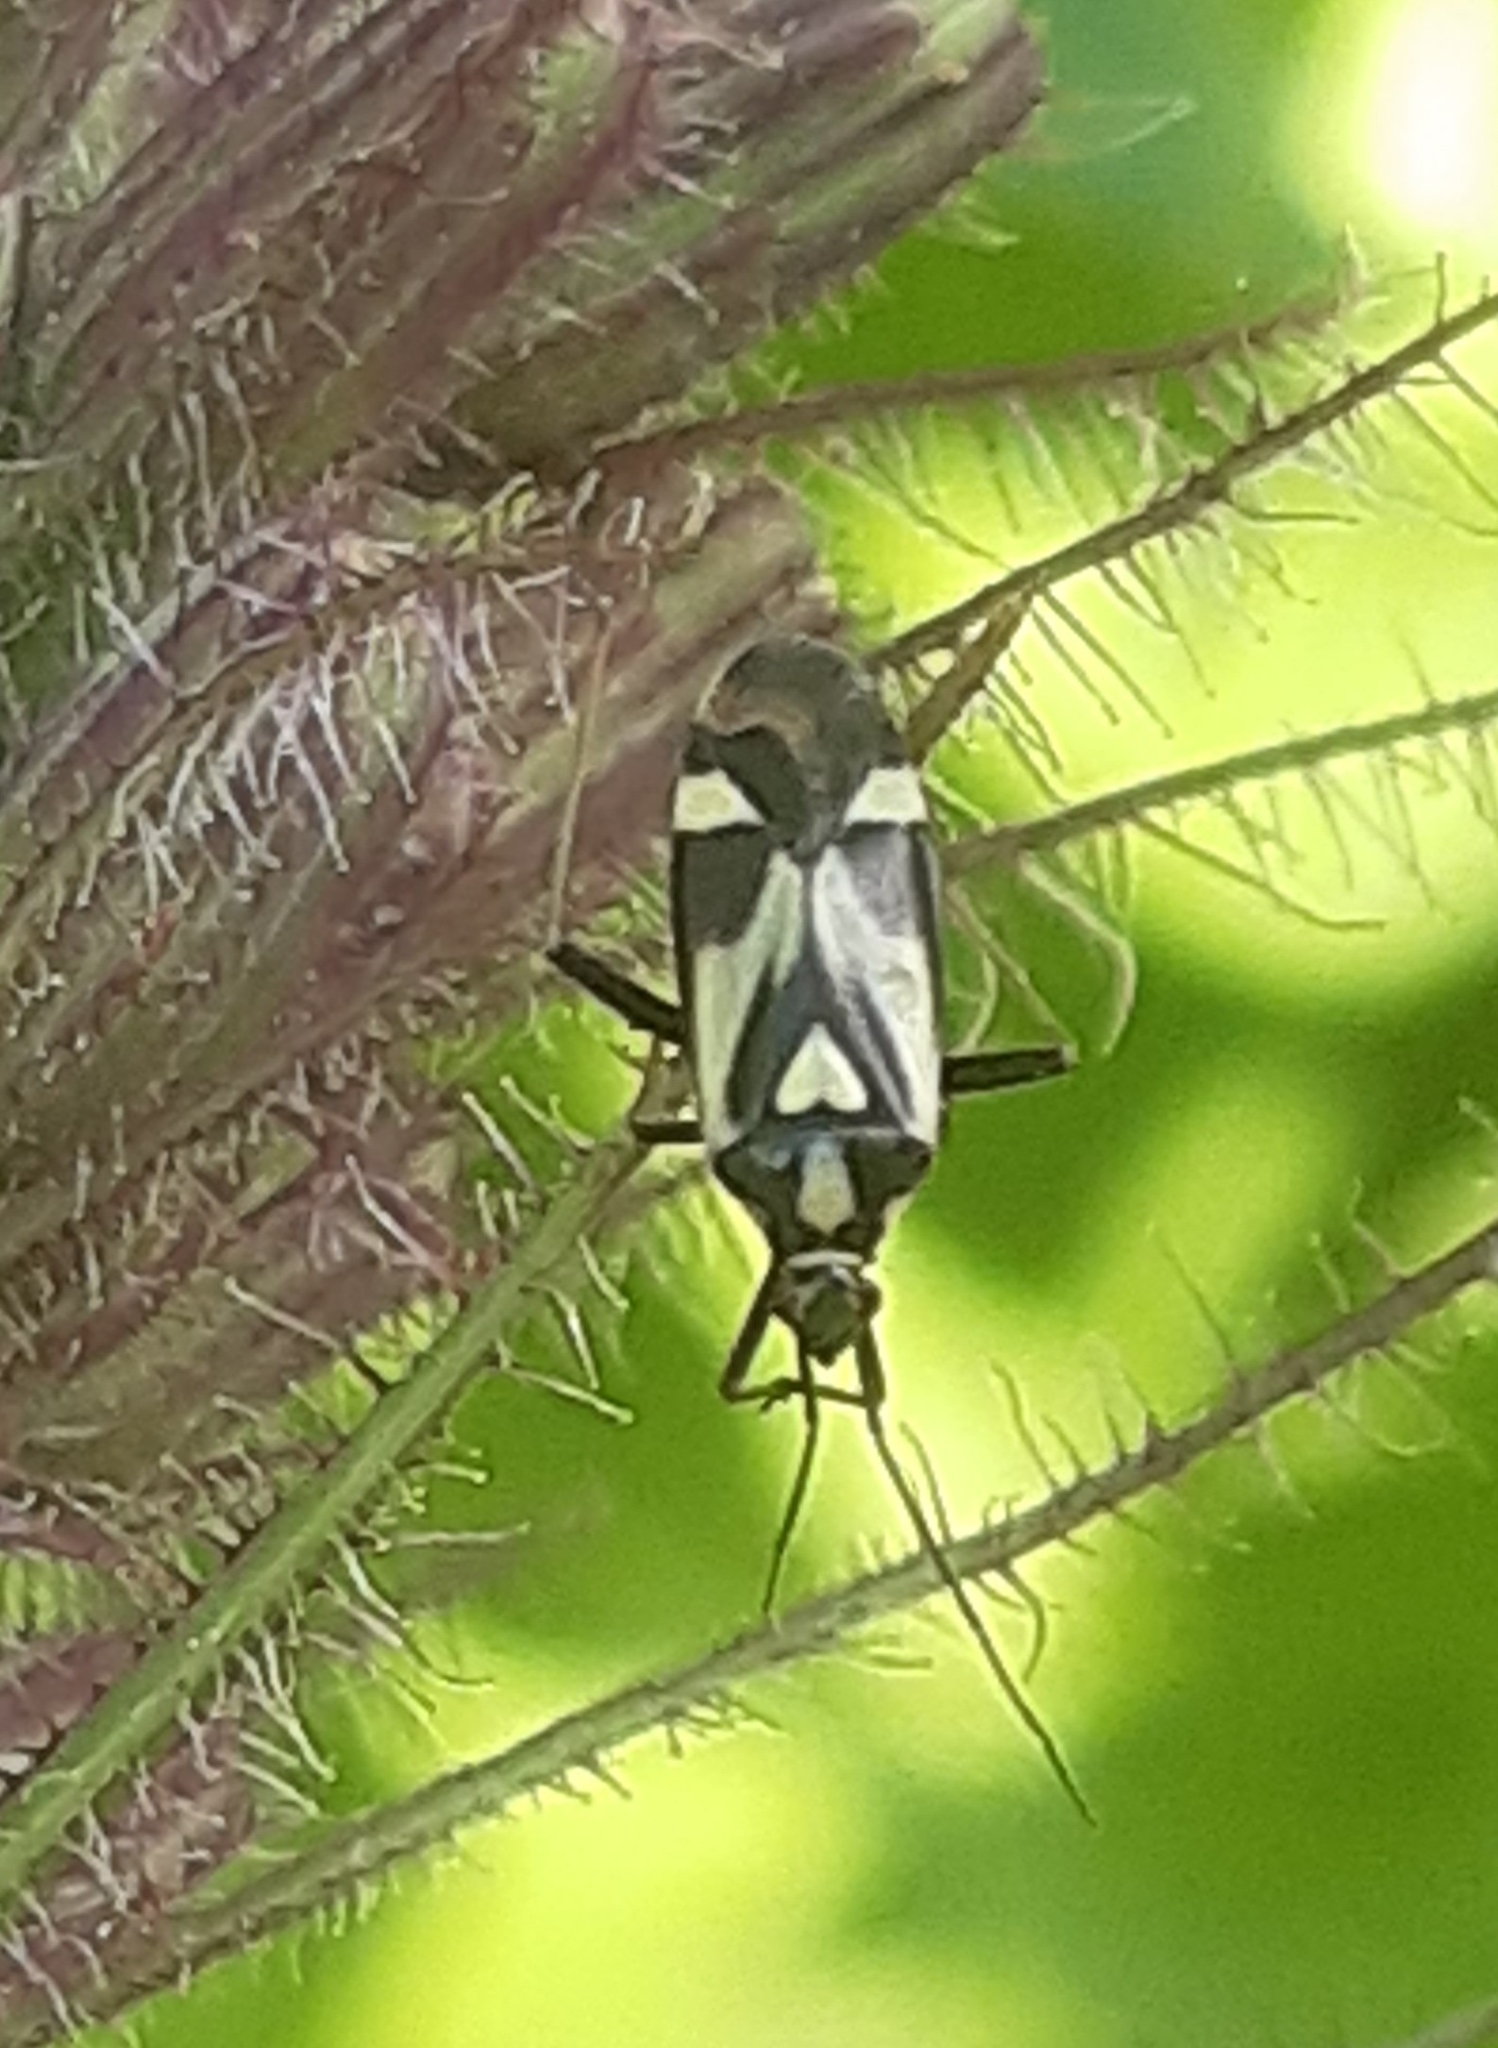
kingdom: Animalia
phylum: Arthropoda
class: Insecta
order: Hemiptera
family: Miridae
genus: Grypocoris
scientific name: Grypocoris sexguttatus
